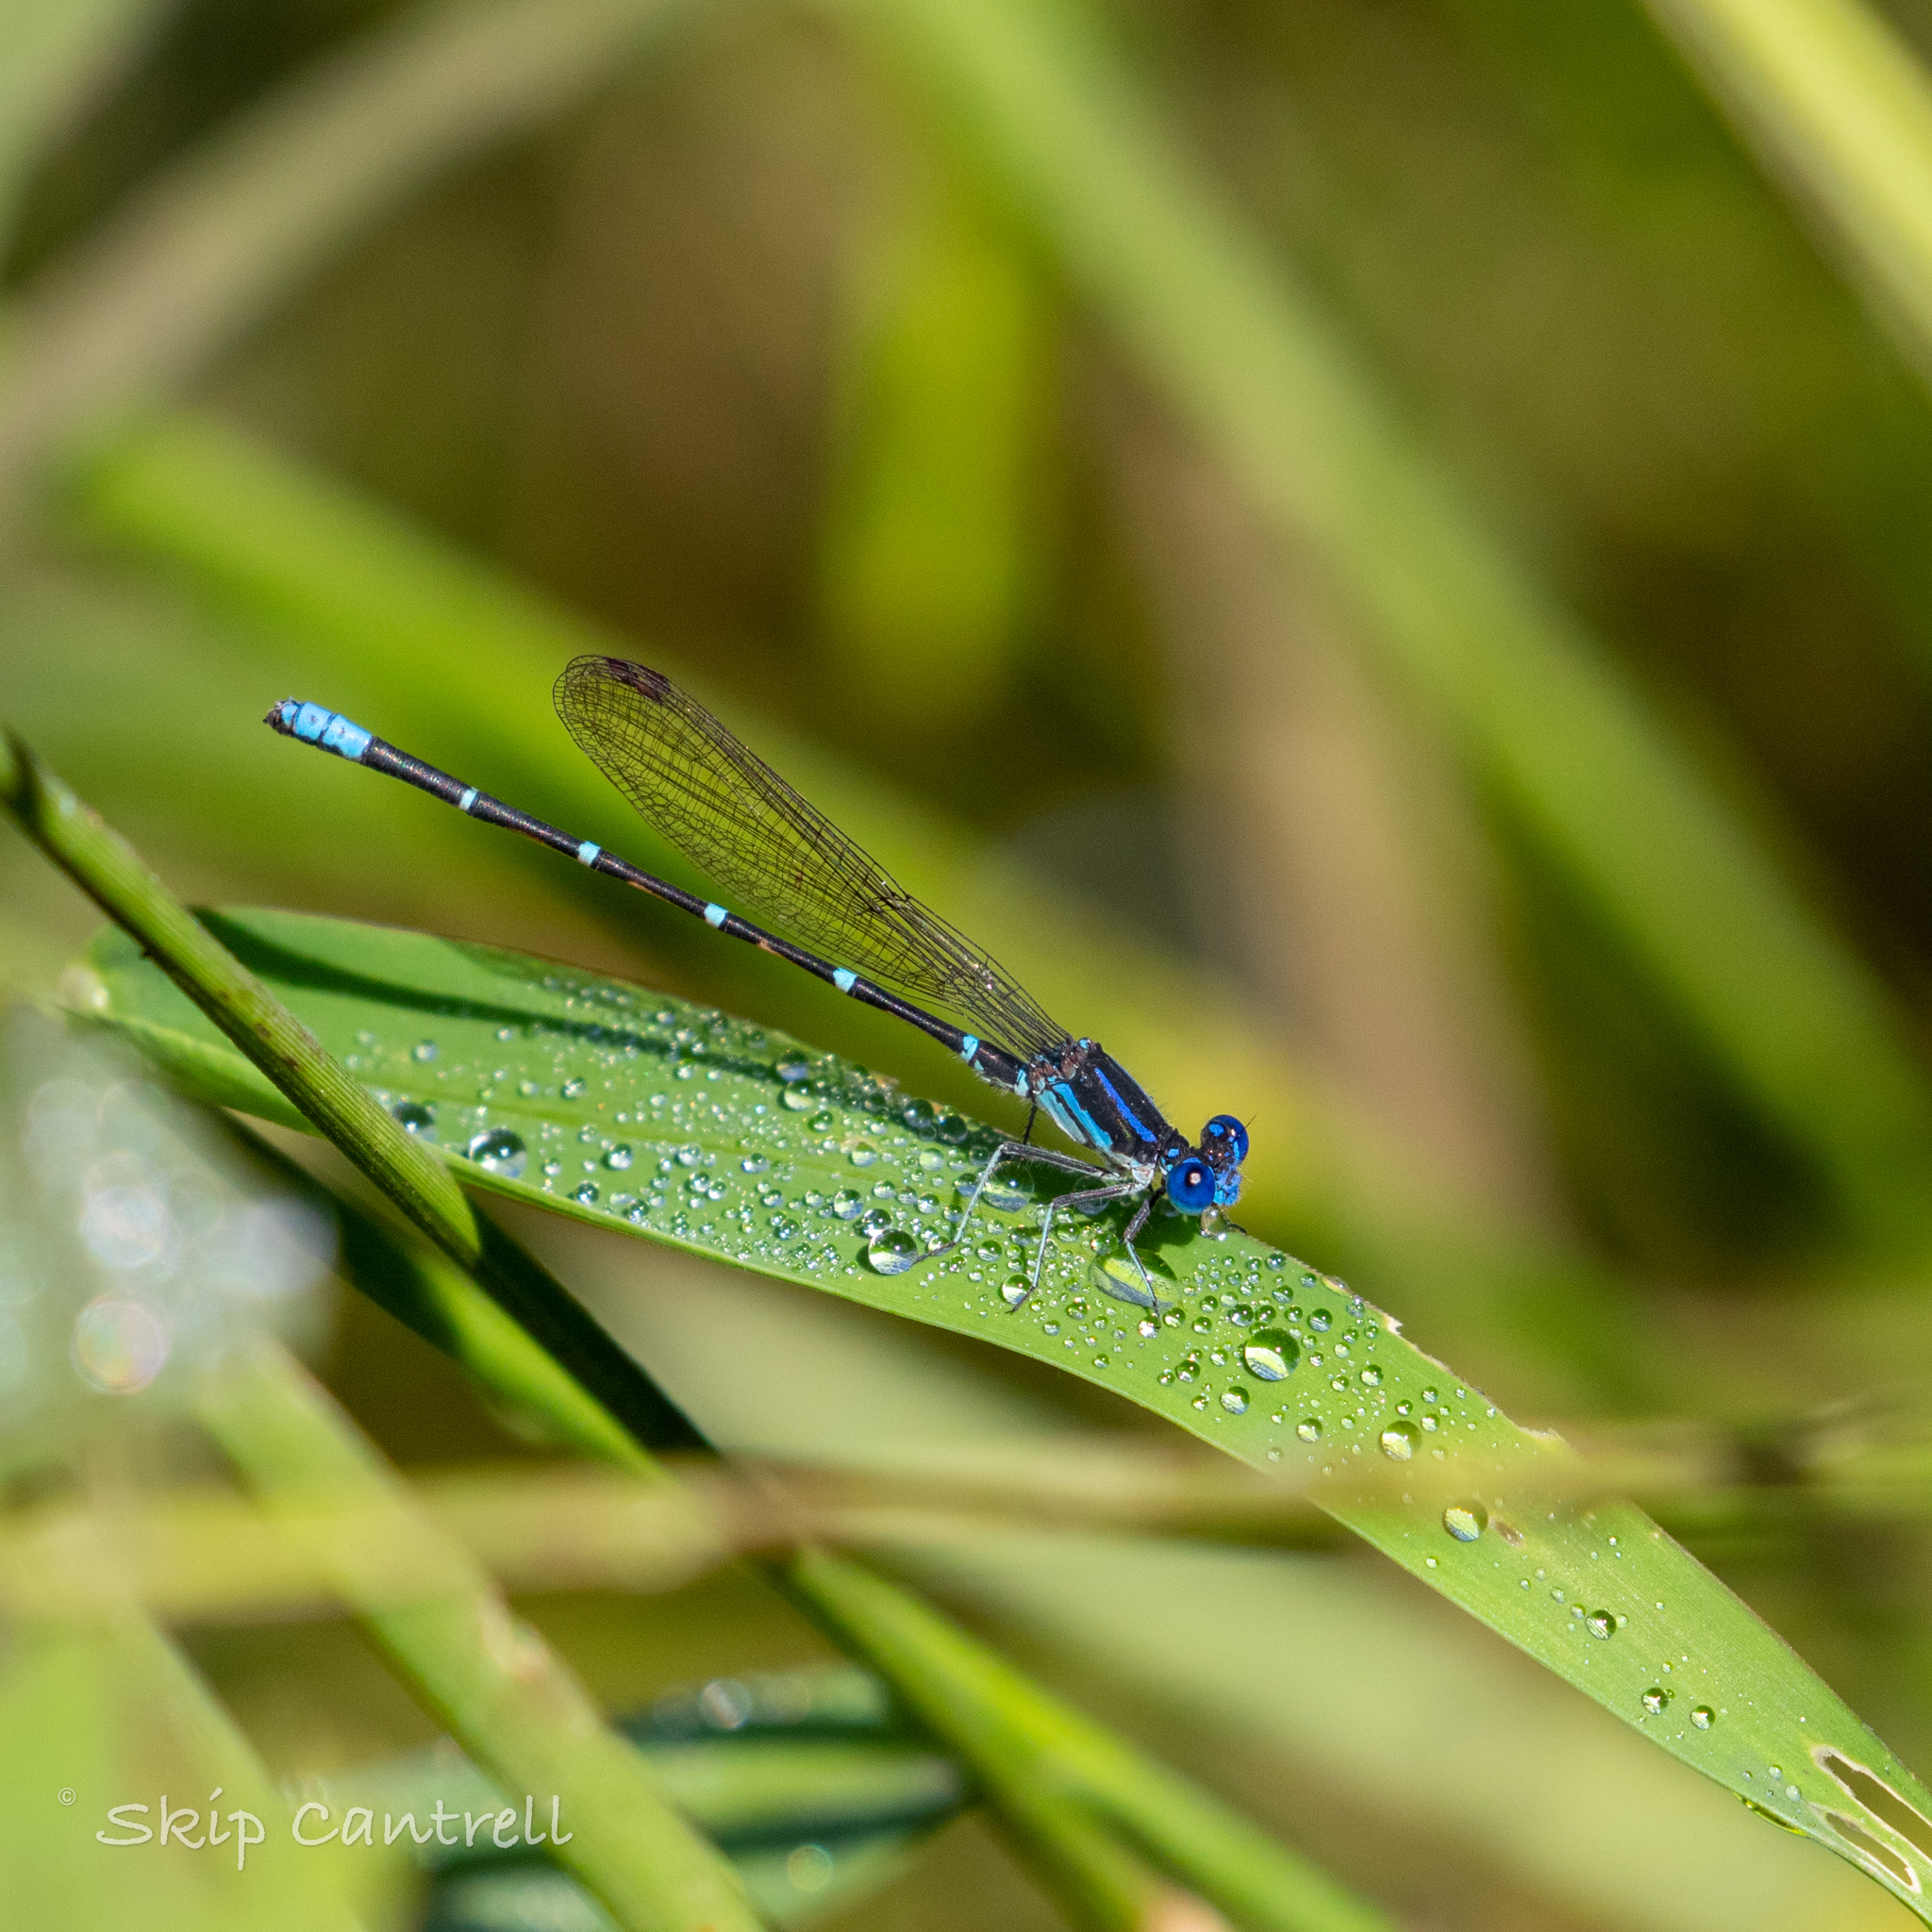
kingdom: Animalia
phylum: Arthropoda
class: Insecta
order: Odonata
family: Coenagrionidae
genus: Argia
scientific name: Argia sedula
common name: Blue-ringed dancer
